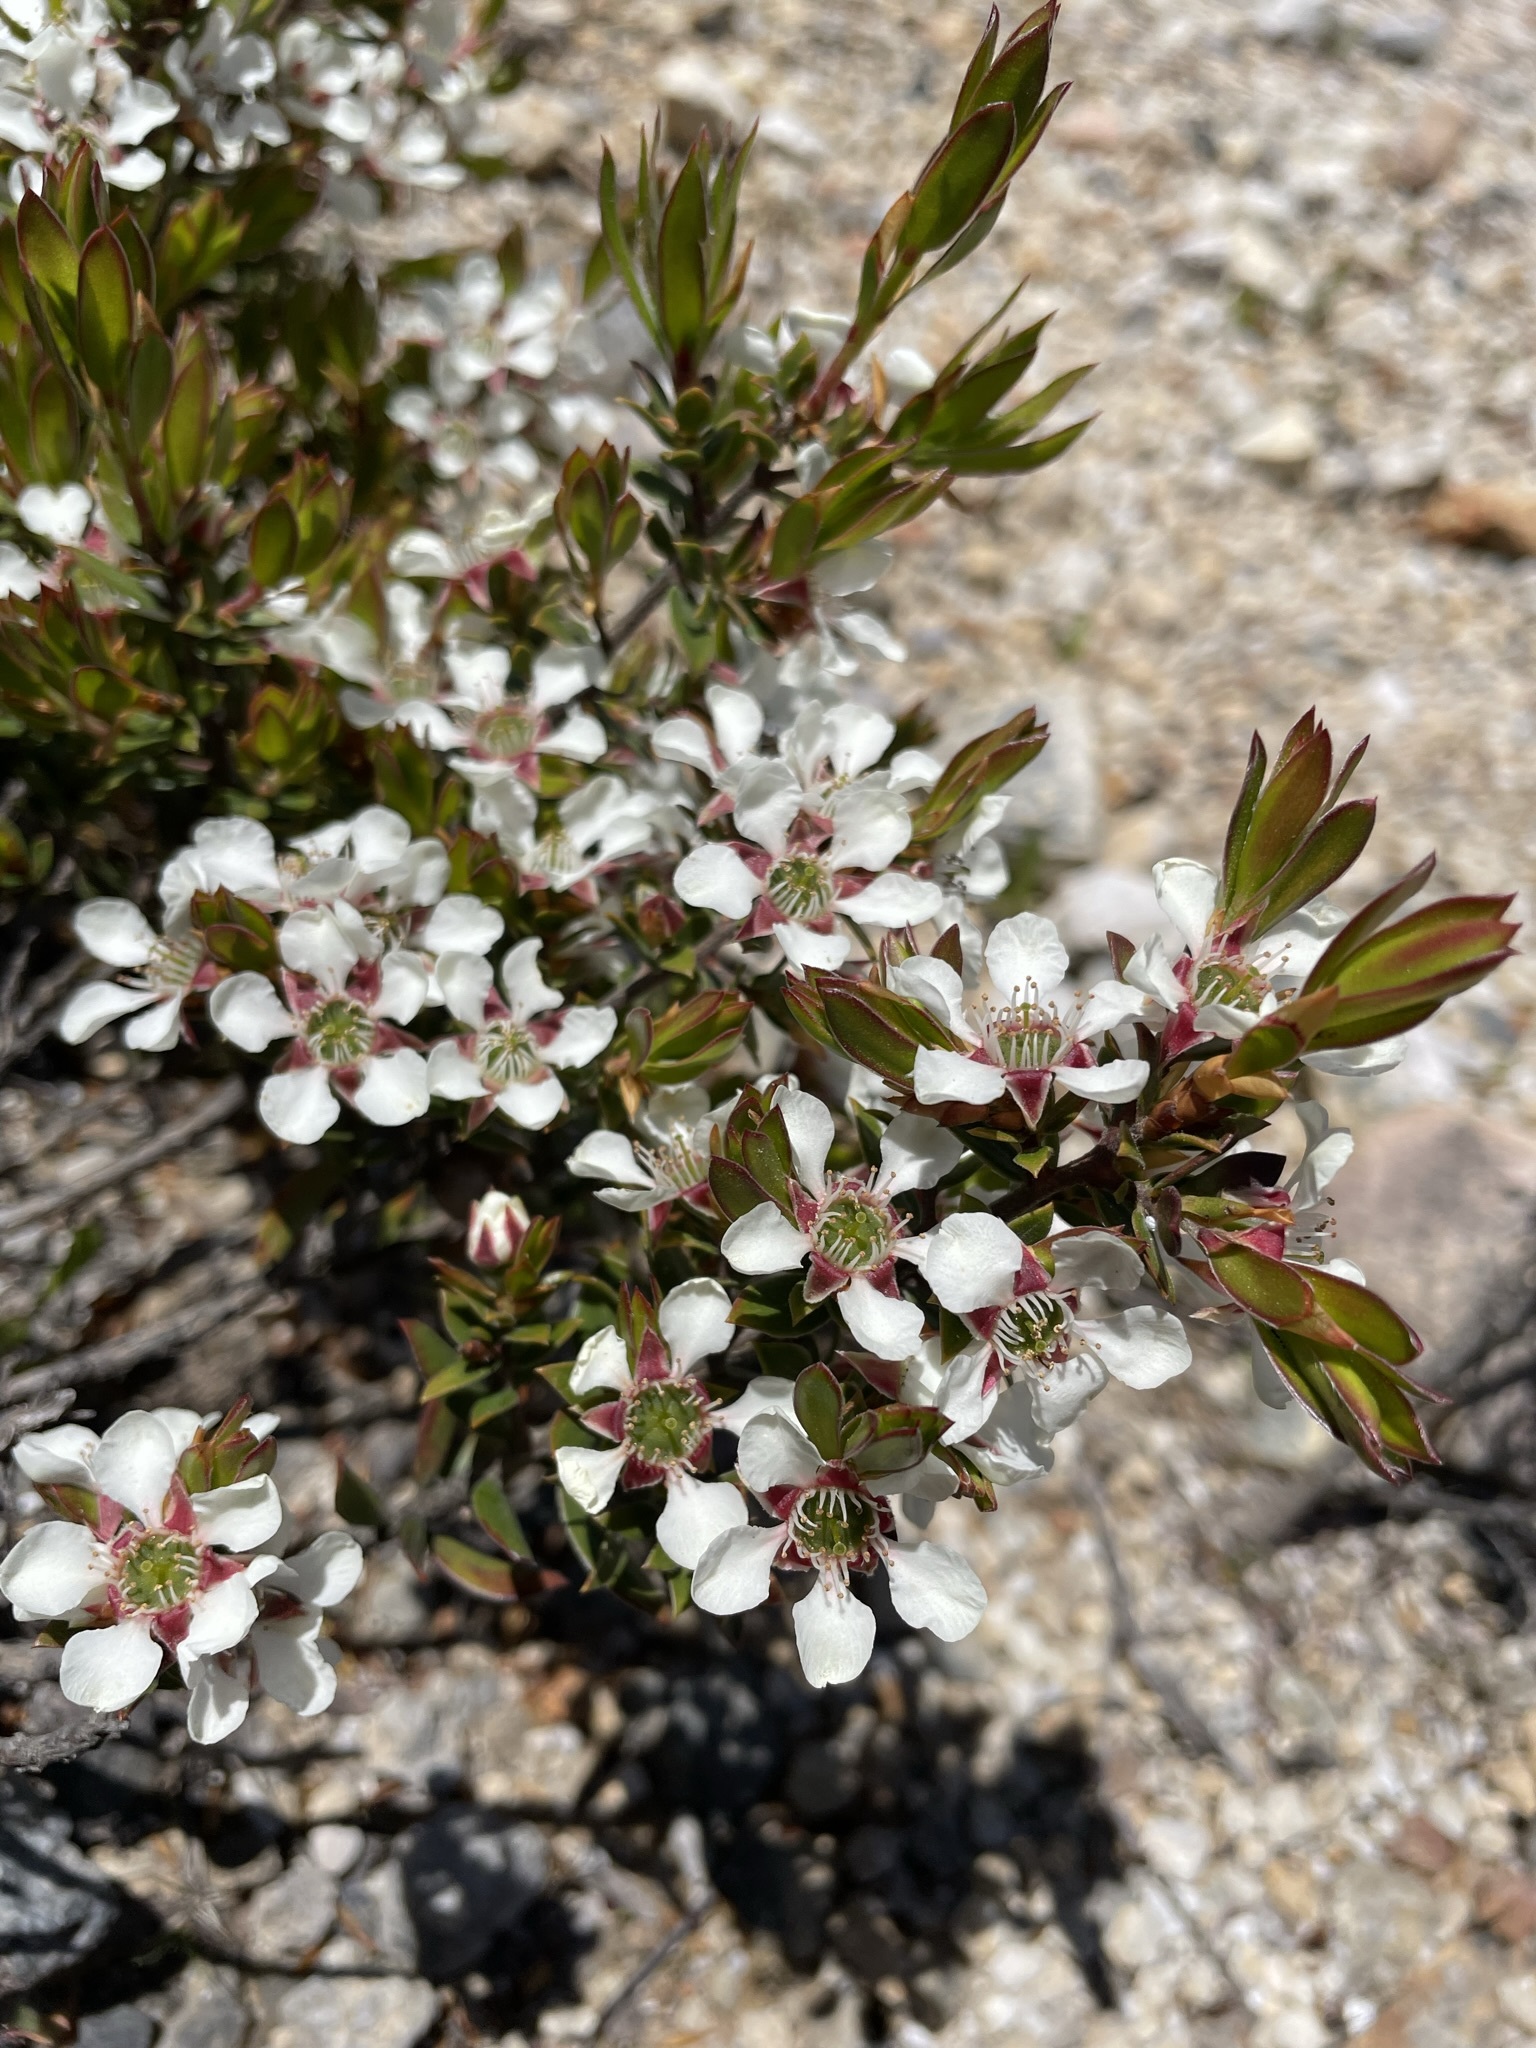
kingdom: Plantae
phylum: Tracheophyta
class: Magnoliopsida
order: Myrtales
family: Myrtaceae
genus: Leptospermum
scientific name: Leptospermum nitidum
